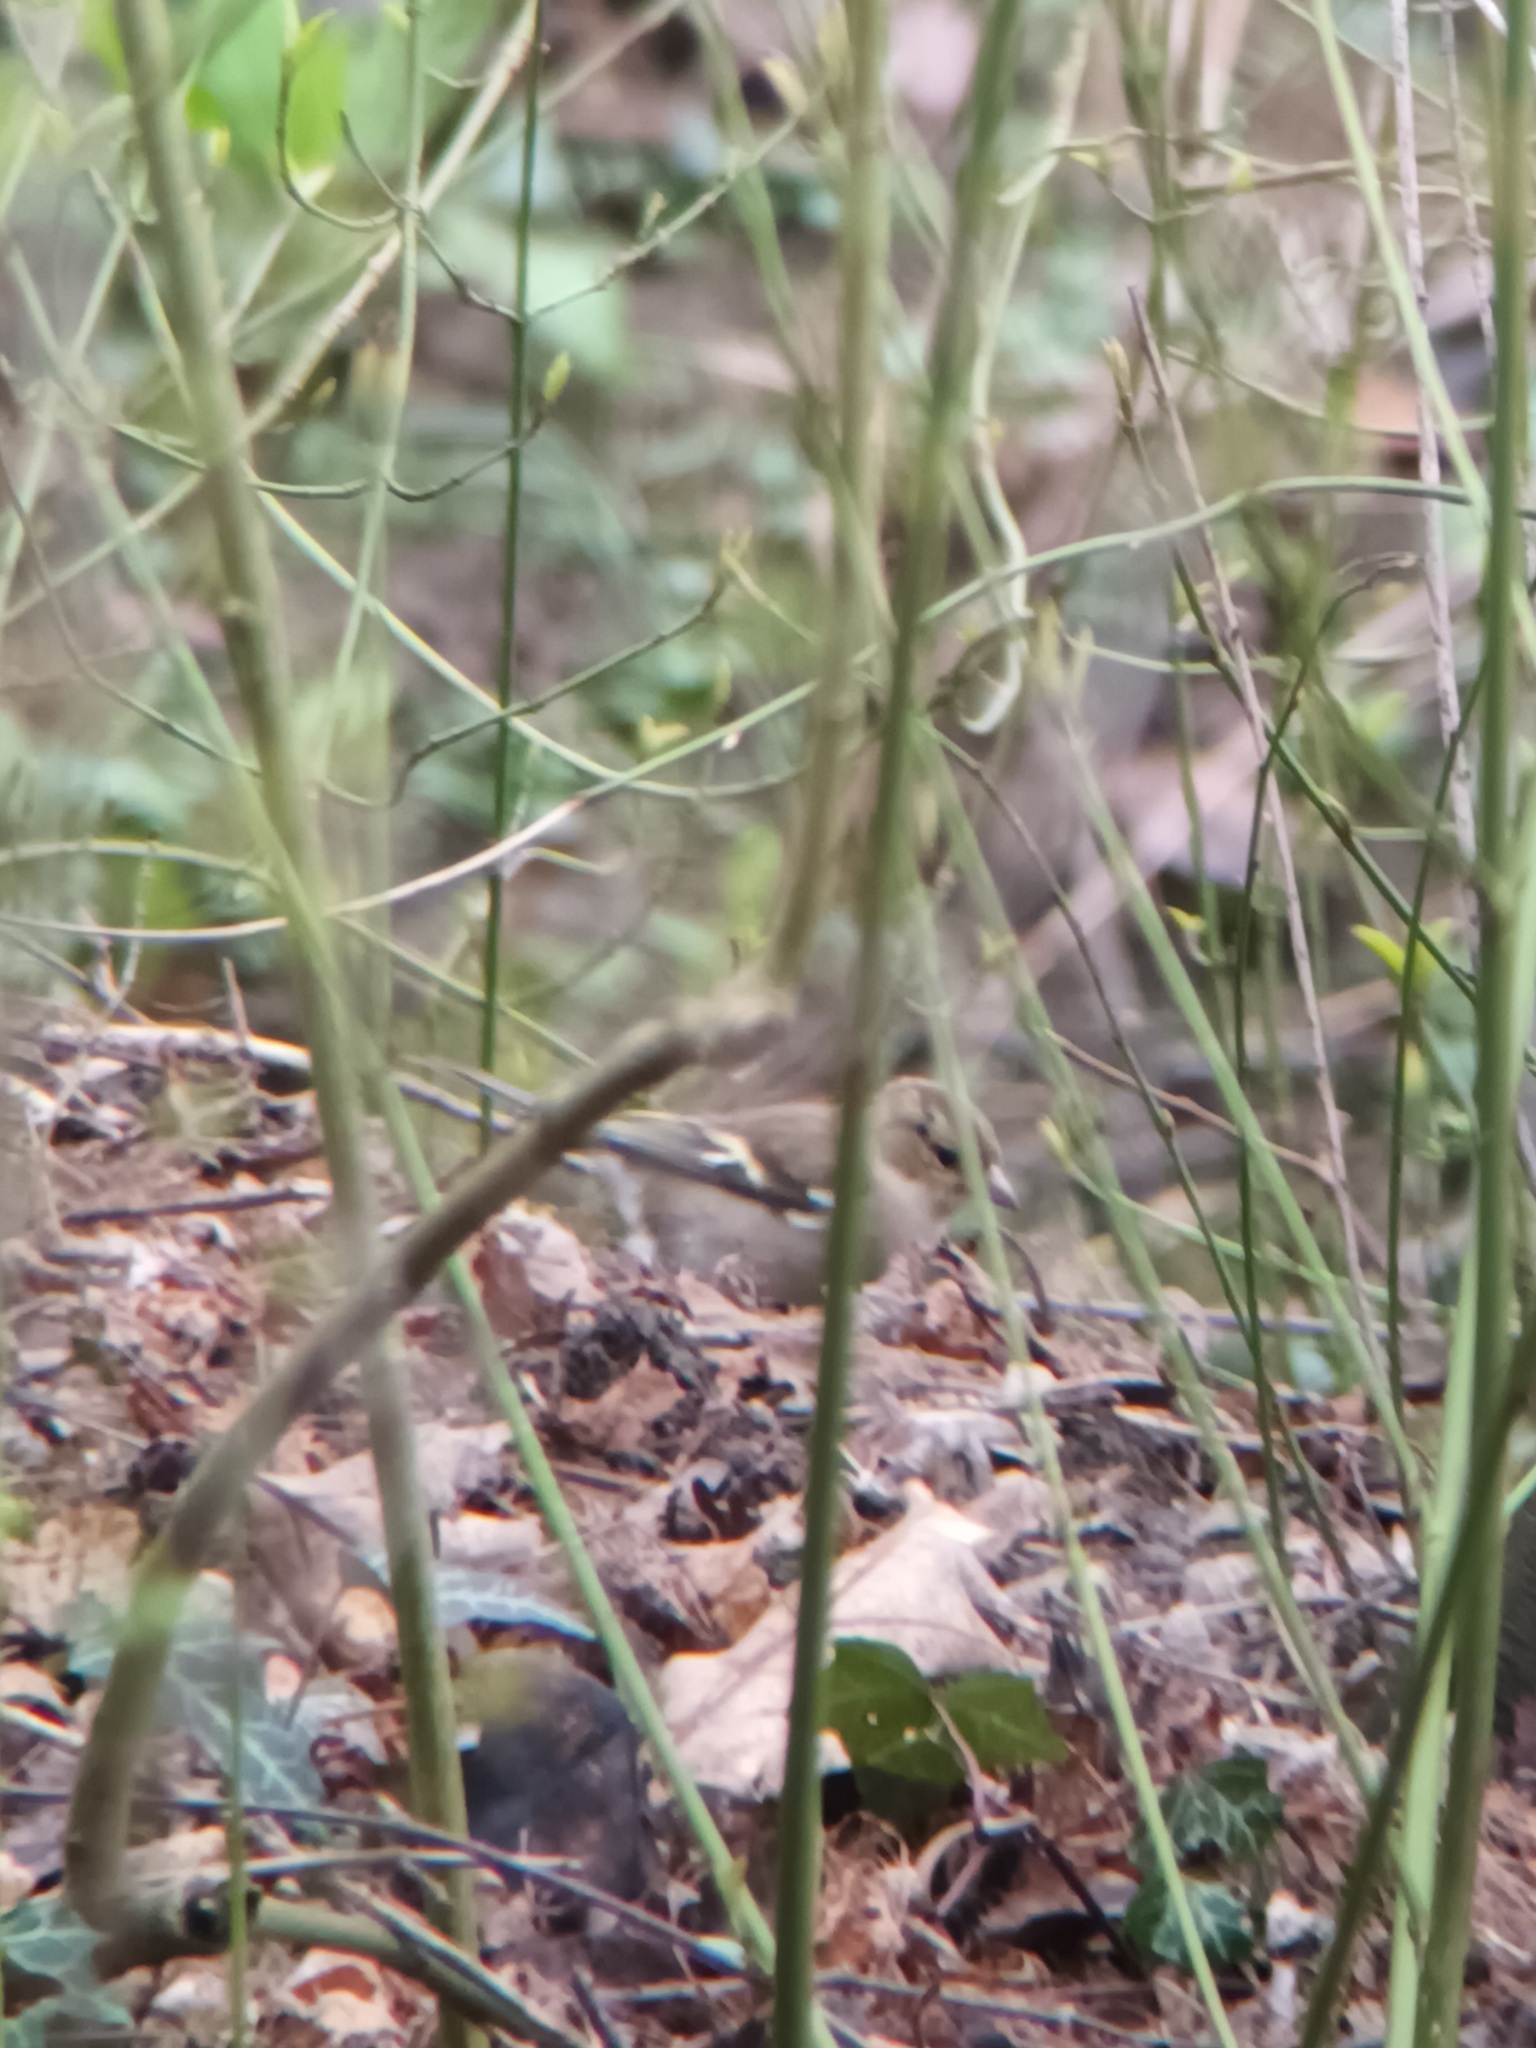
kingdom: Animalia
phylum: Chordata
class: Aves
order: Passeriformes
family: Fringillidae
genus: Fringilla
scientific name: Fringilla coelebs
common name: Common chaffinch
